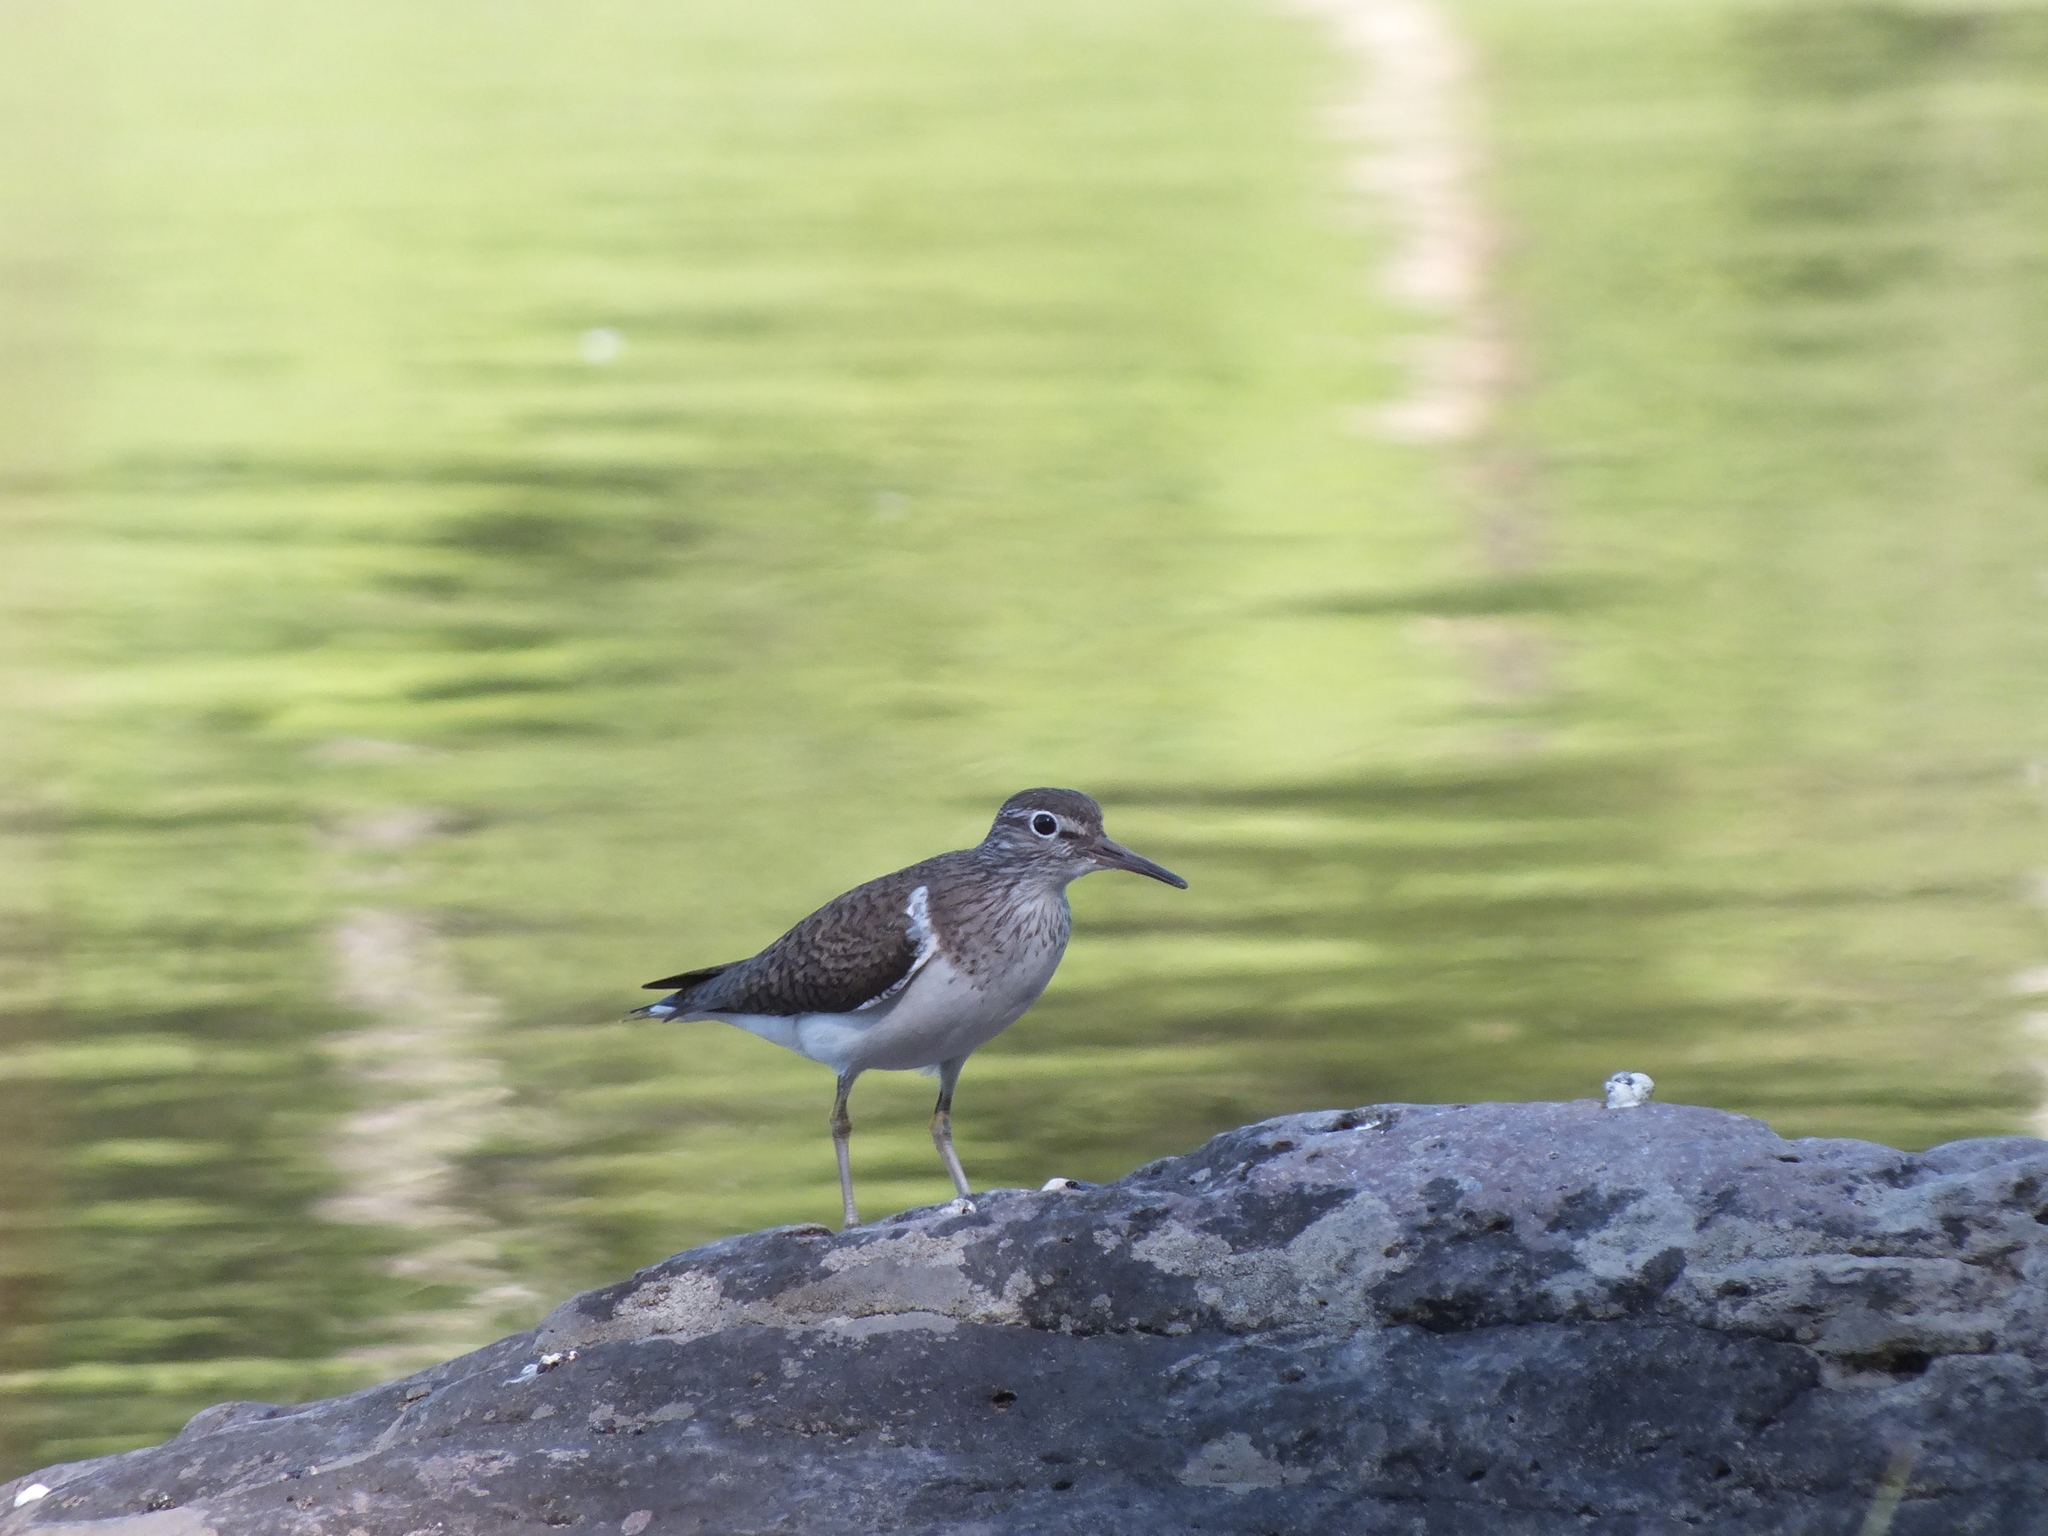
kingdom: Animalia
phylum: Chordata
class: Aves
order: Charadriiformes
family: Scolopacidae
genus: Actitis
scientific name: Actitis hypoleucos
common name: Common sandpiper
